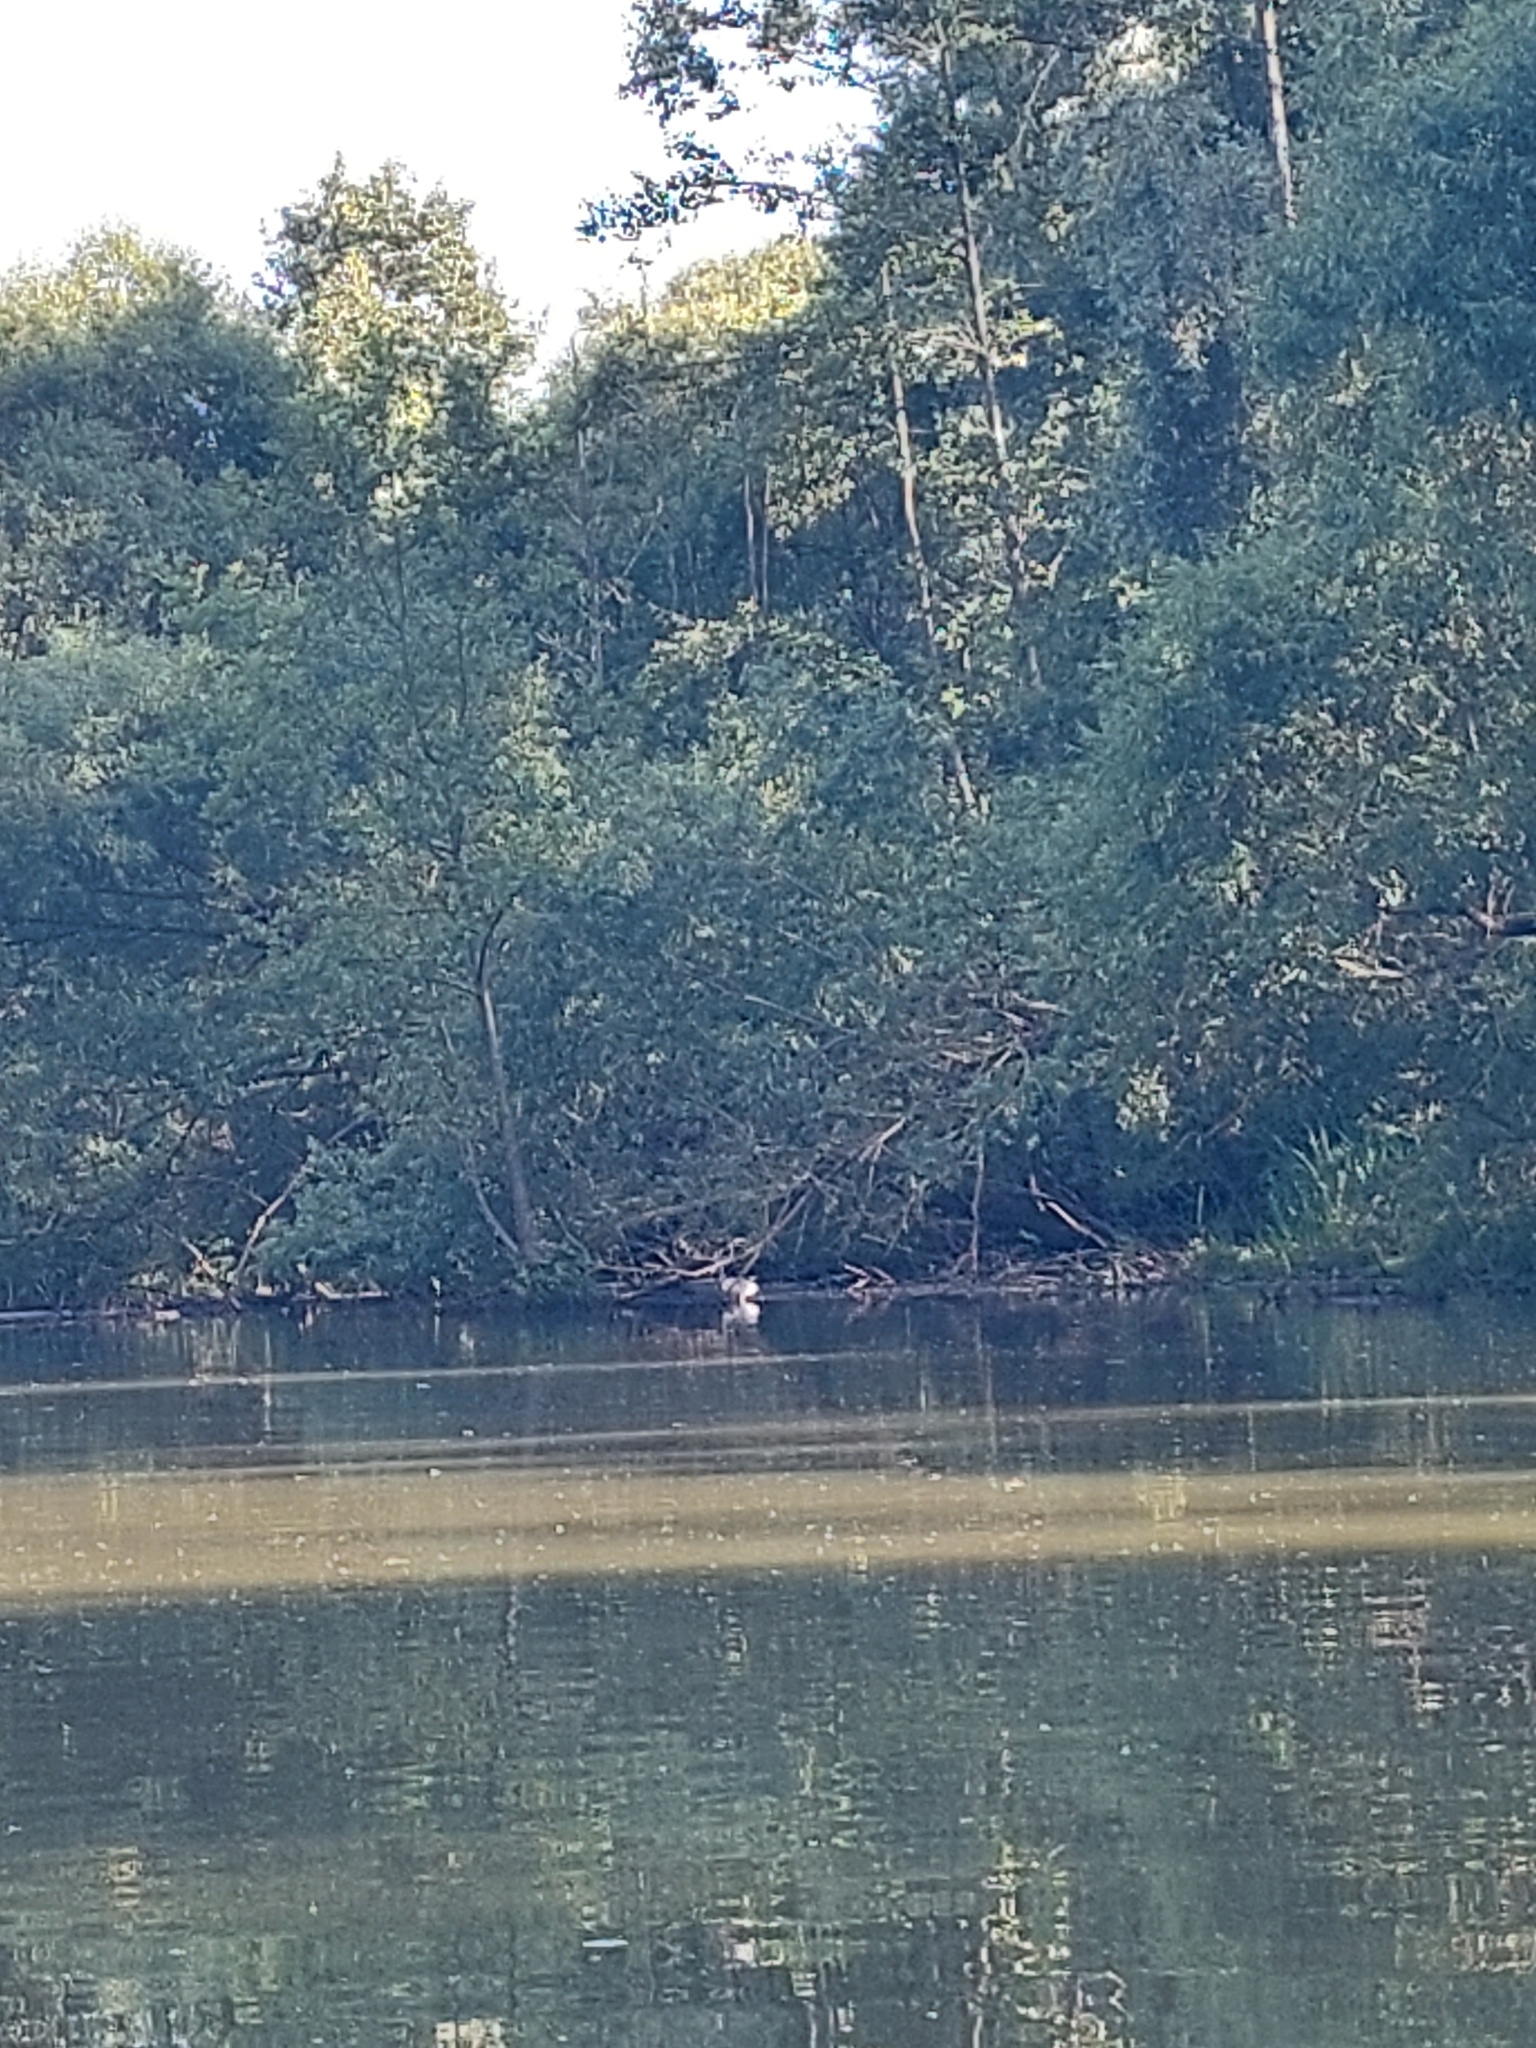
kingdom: Animalia
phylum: Chordata
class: Aves
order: Pelecaniformes
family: Ardeidae
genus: Ardea
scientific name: Ardea cinerea
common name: Grey heron
